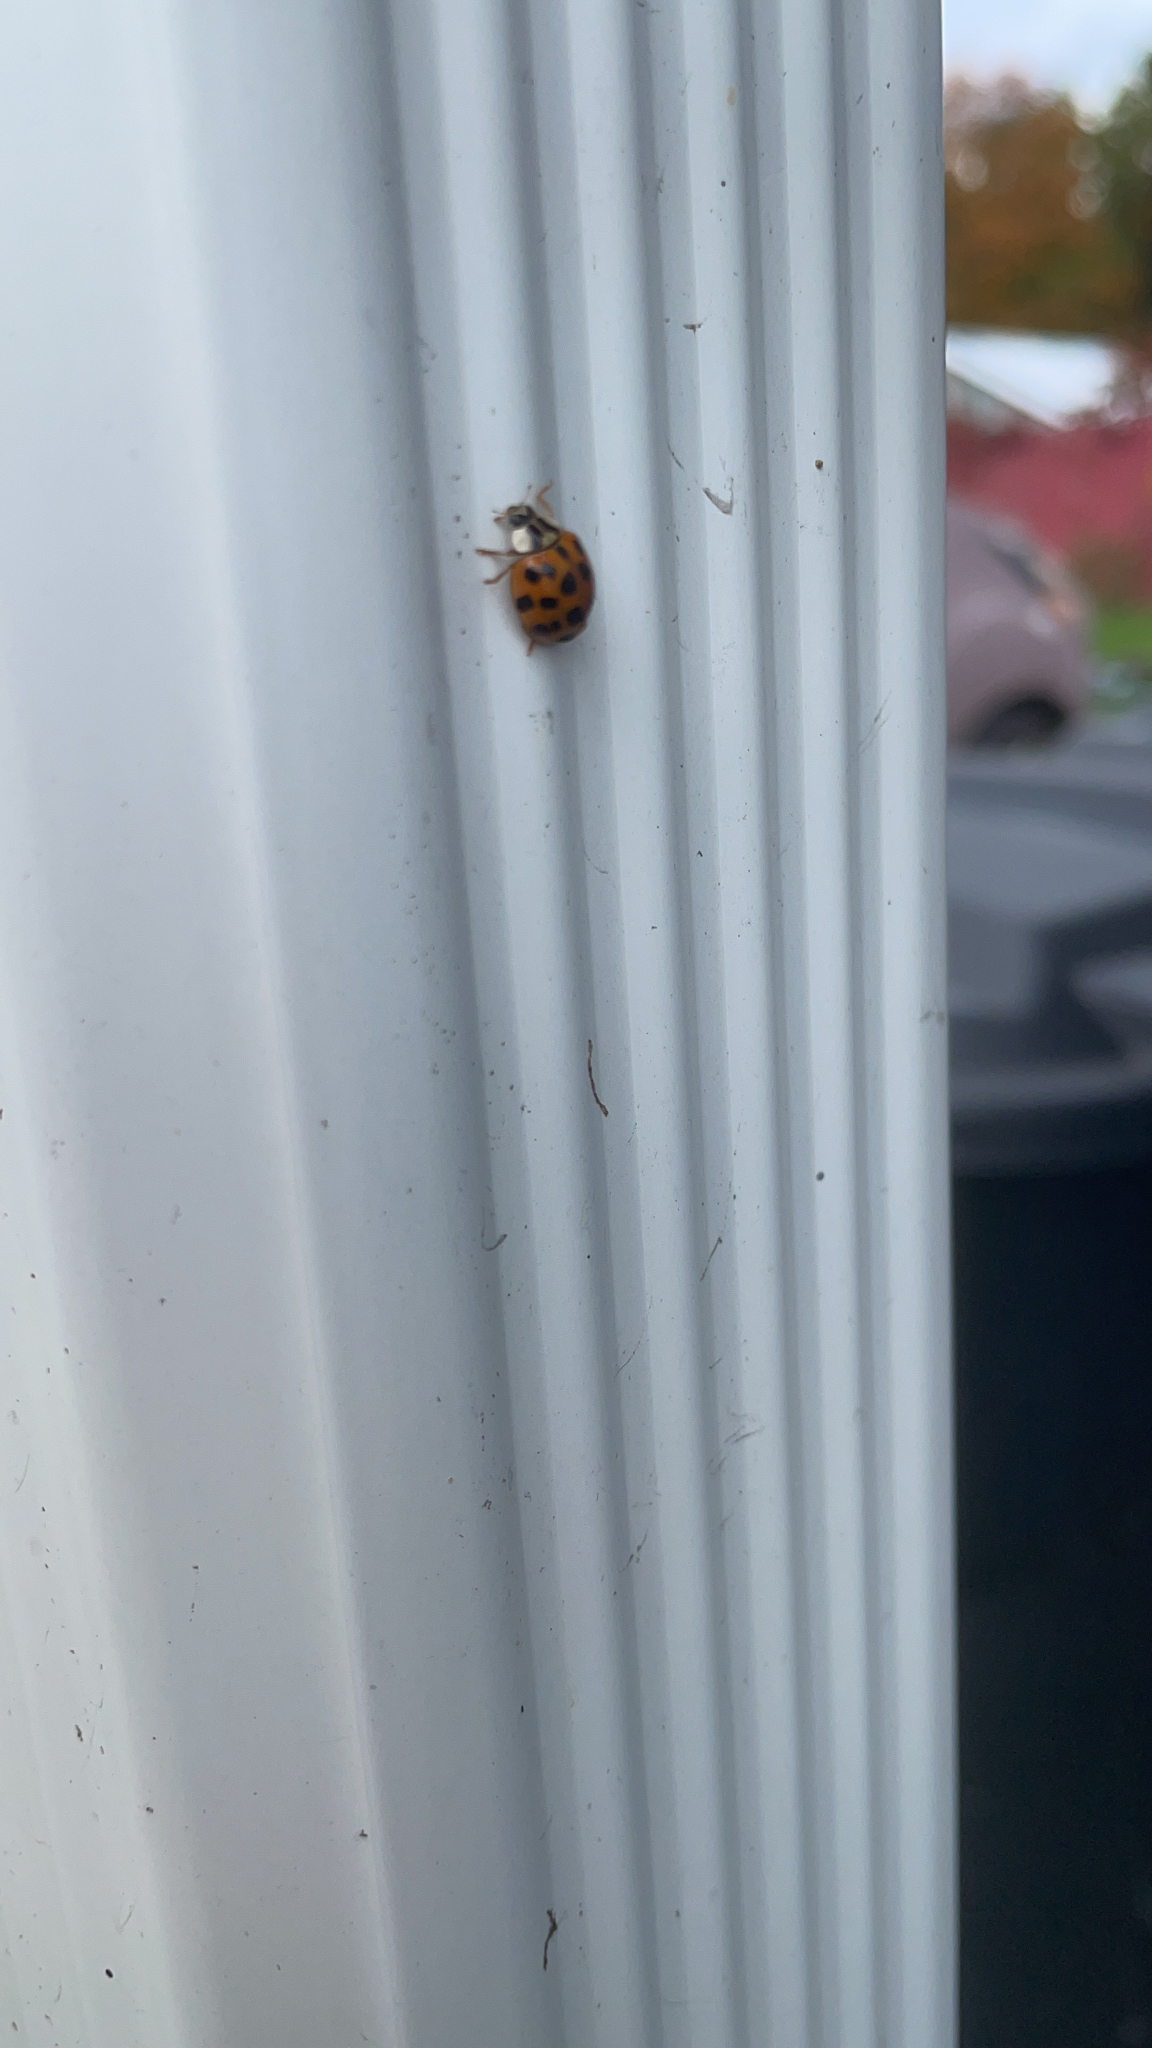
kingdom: Animalia
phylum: Arthropoda
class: Insecta
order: Coleoptera
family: Coccinellidae
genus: Harmonia
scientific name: Harmonia axyridis
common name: Harlequin ladybird
